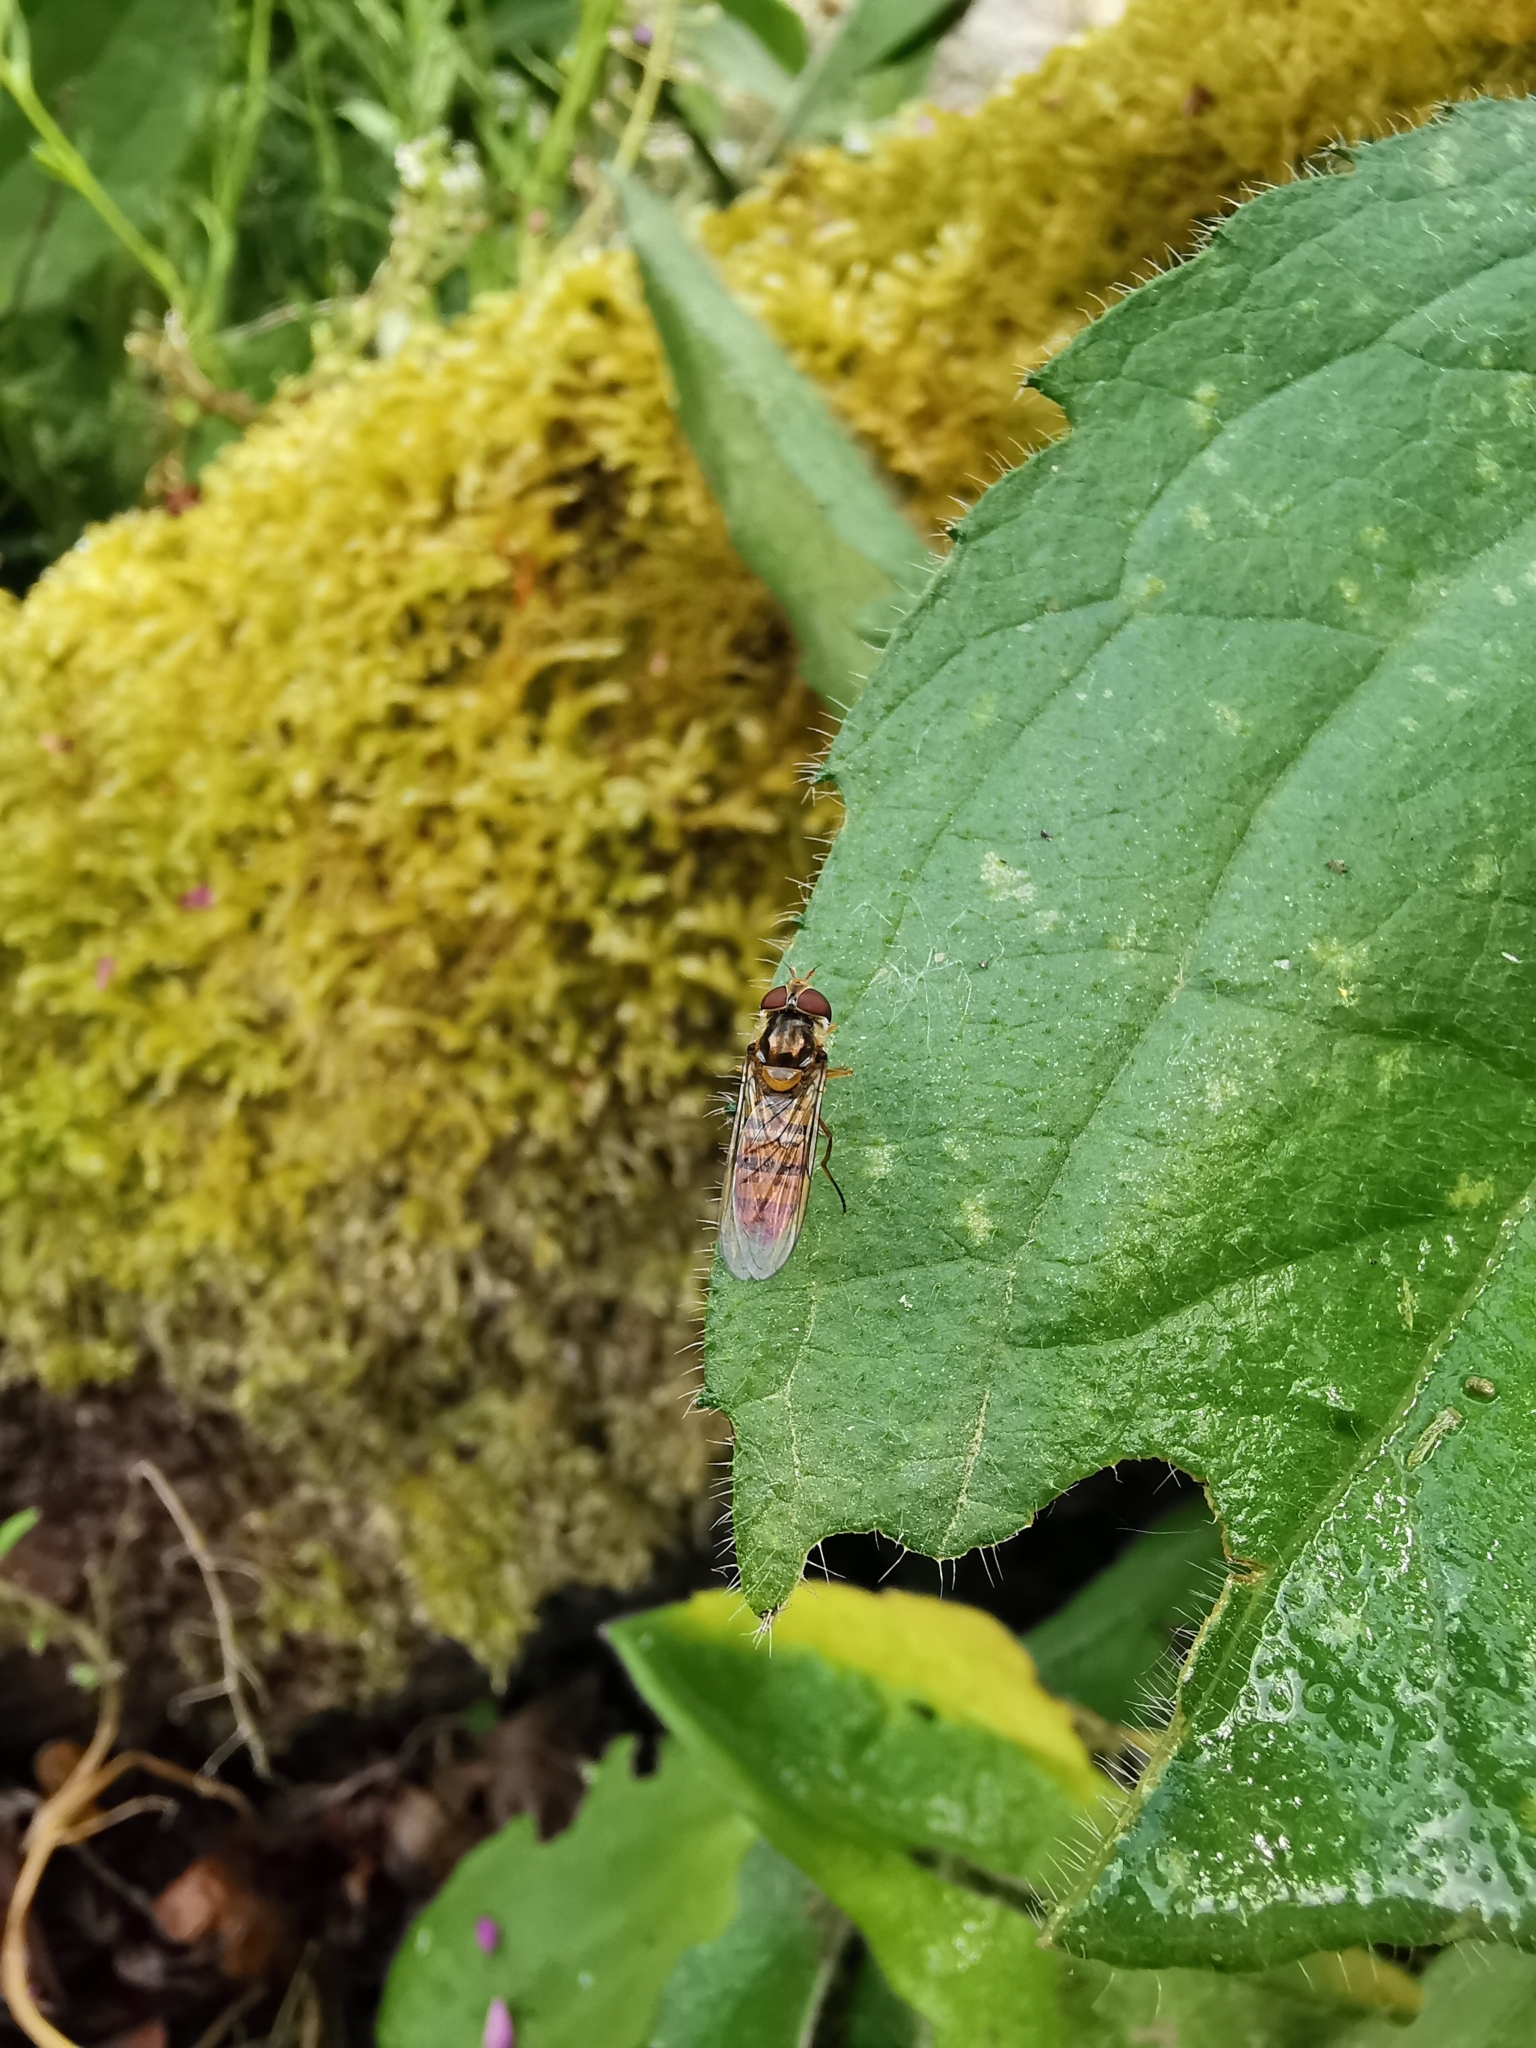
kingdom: Animalia
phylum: Arthropoda
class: Insecta
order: Diptera
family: Syrphidae
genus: Episyrphus
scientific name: Episyrphus balteatus
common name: Marmalade hoverfly
